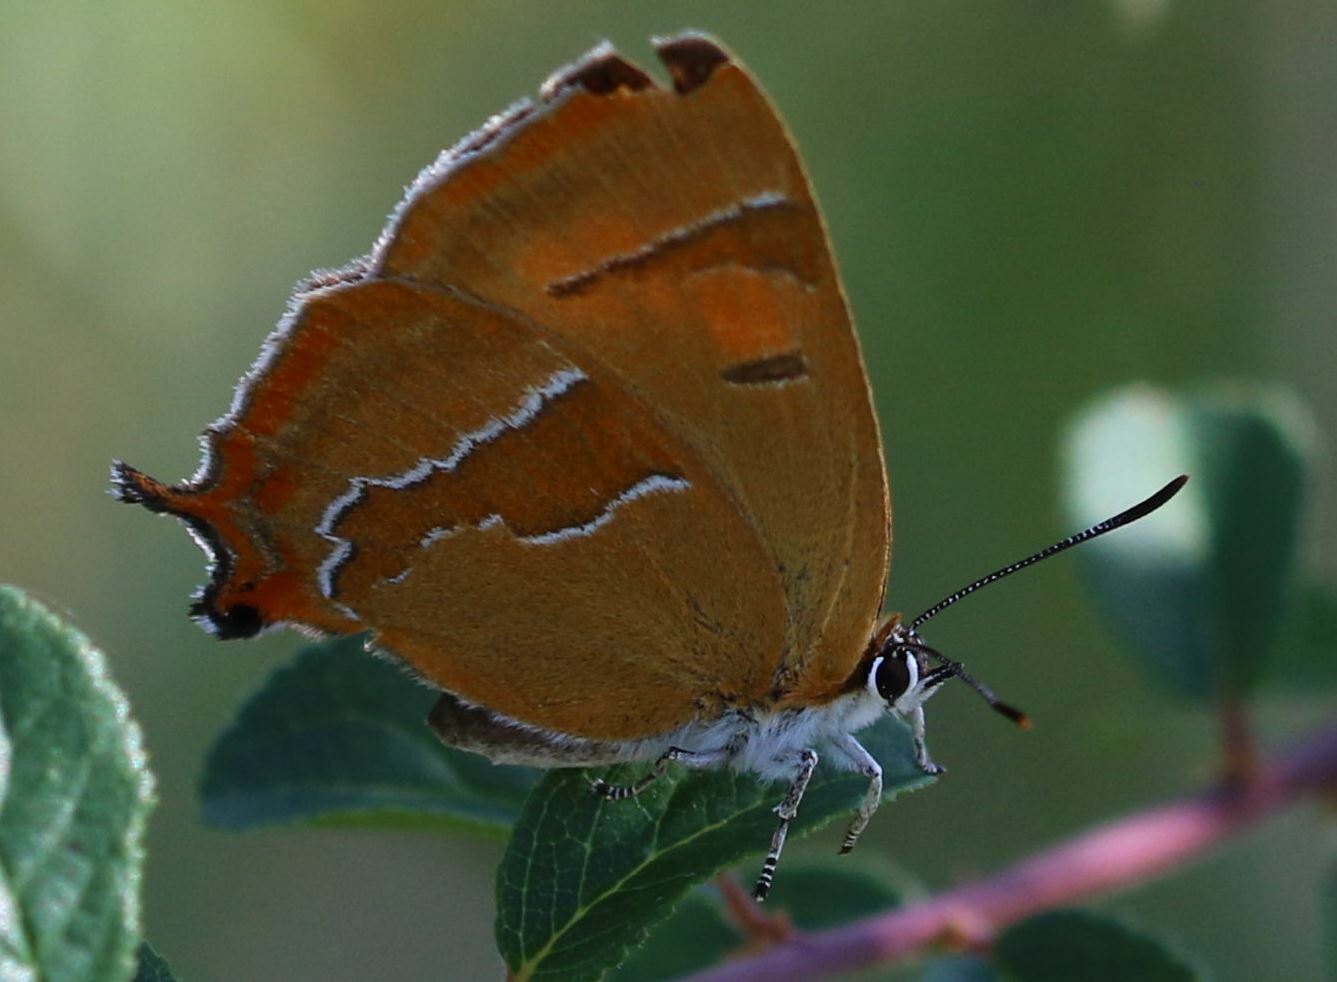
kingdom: Animalia
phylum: Arthropoda
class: Insecta
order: Lepidoptera
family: Lycaenidae
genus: Thecla
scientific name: Thecla betulae
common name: Brown hairstreak
